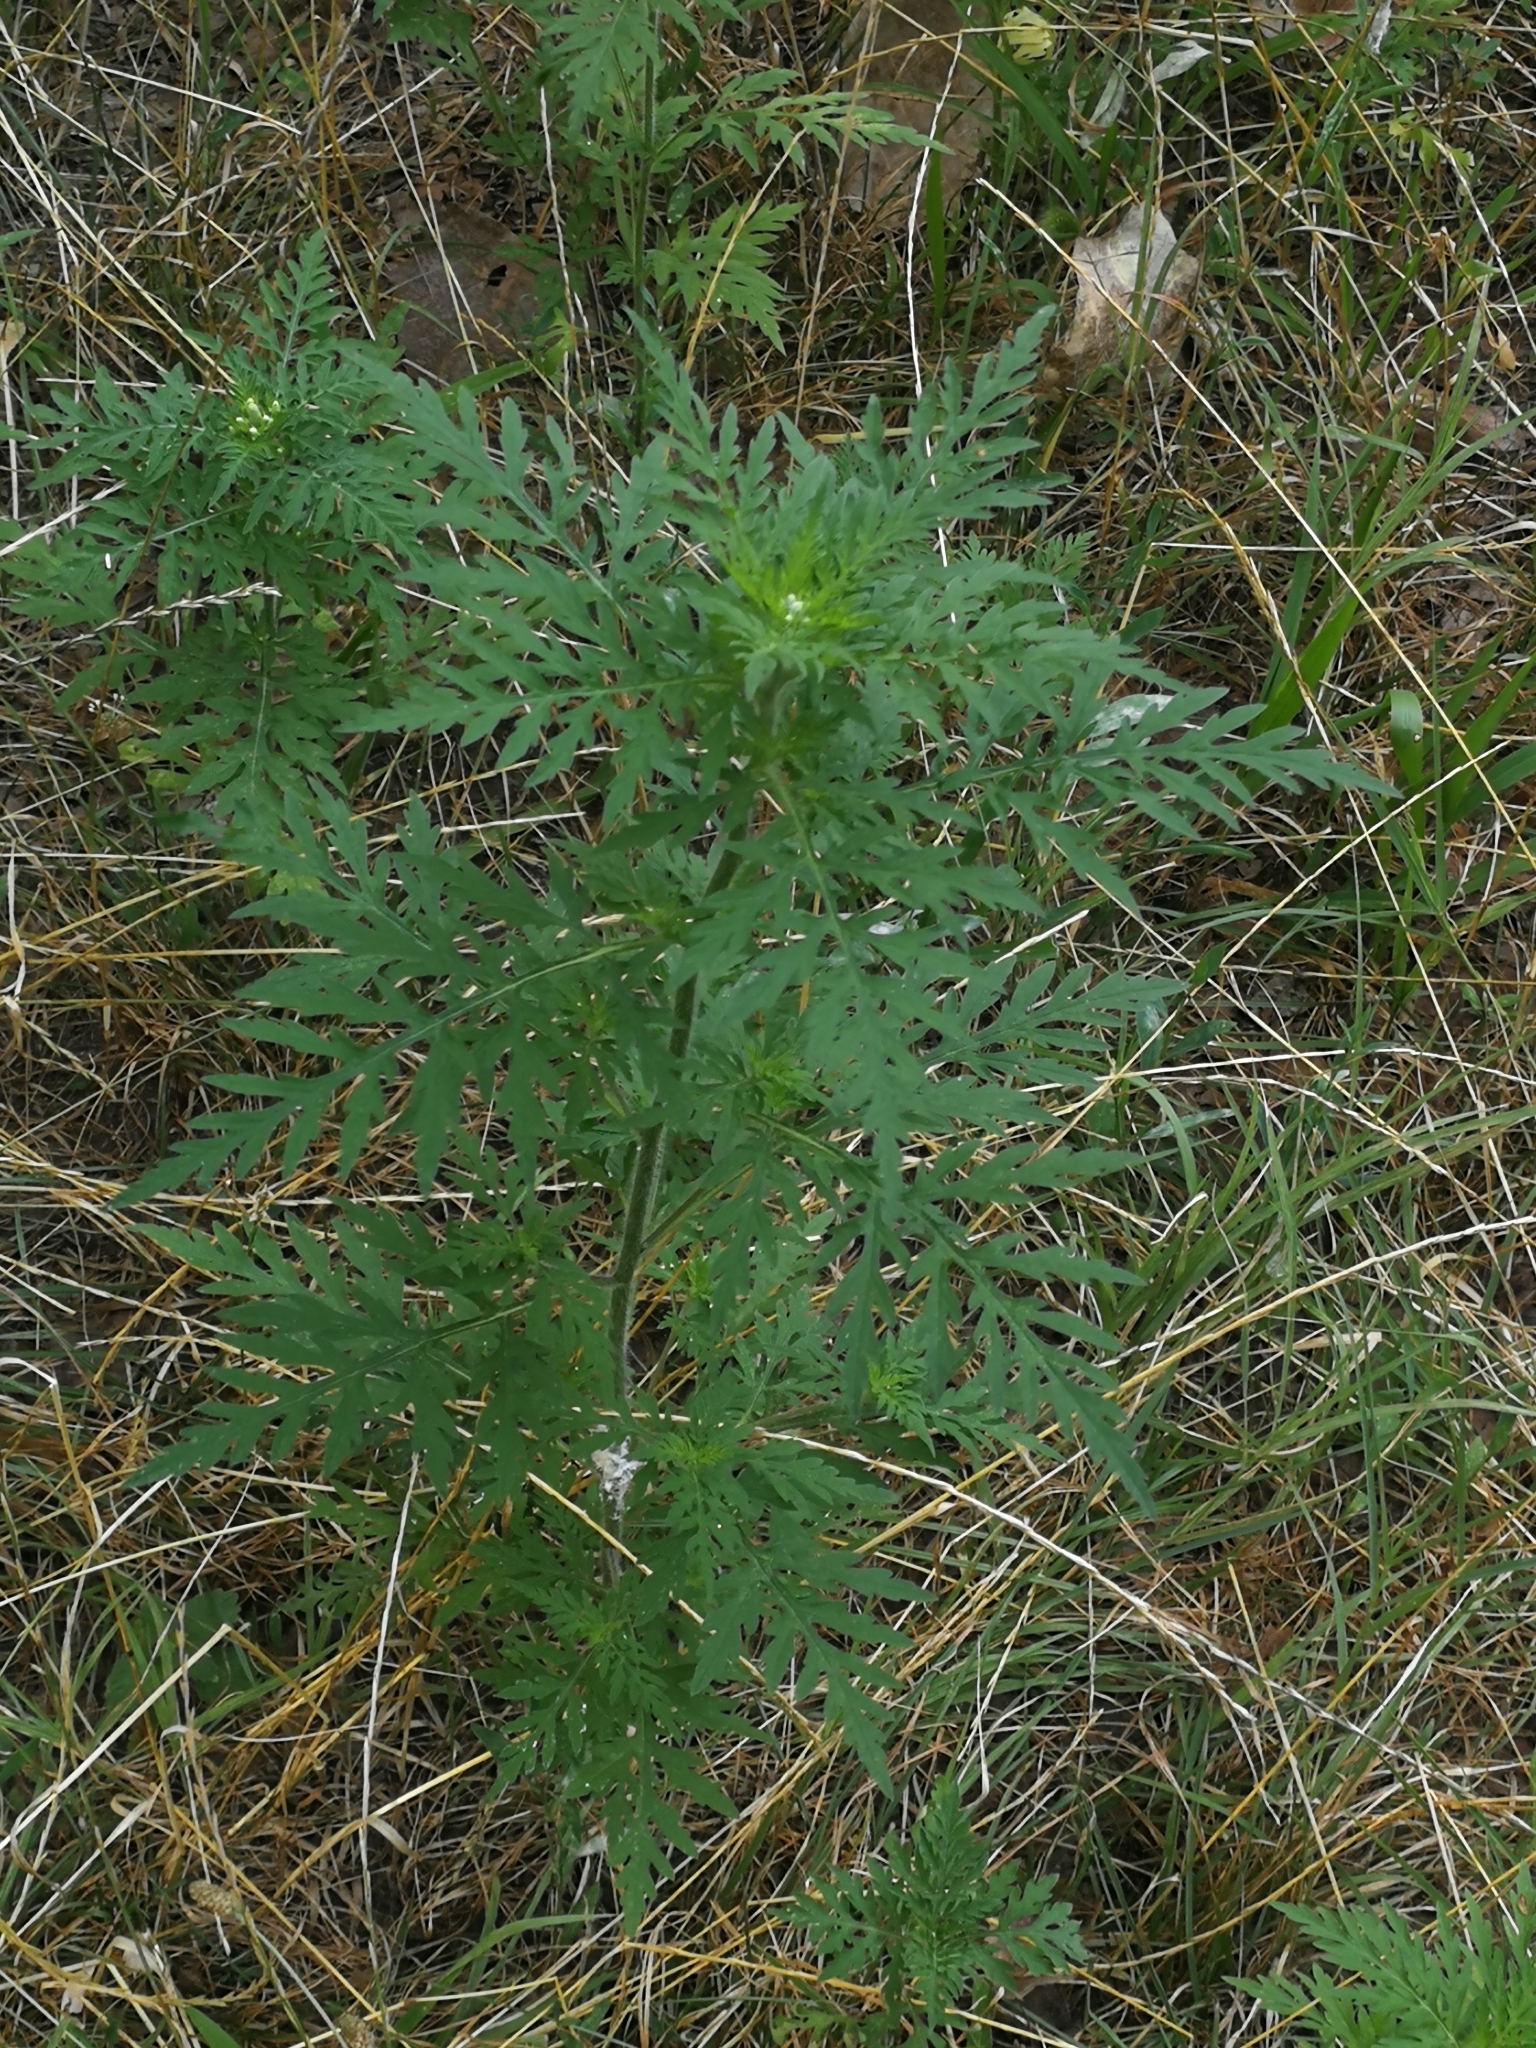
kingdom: Plantae
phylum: Tracheophyta
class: Magnoliopsida
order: Asterales
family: Asteraceae
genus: Ambrosia
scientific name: Ambrosia artemisiifolia
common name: Annual ragweed
